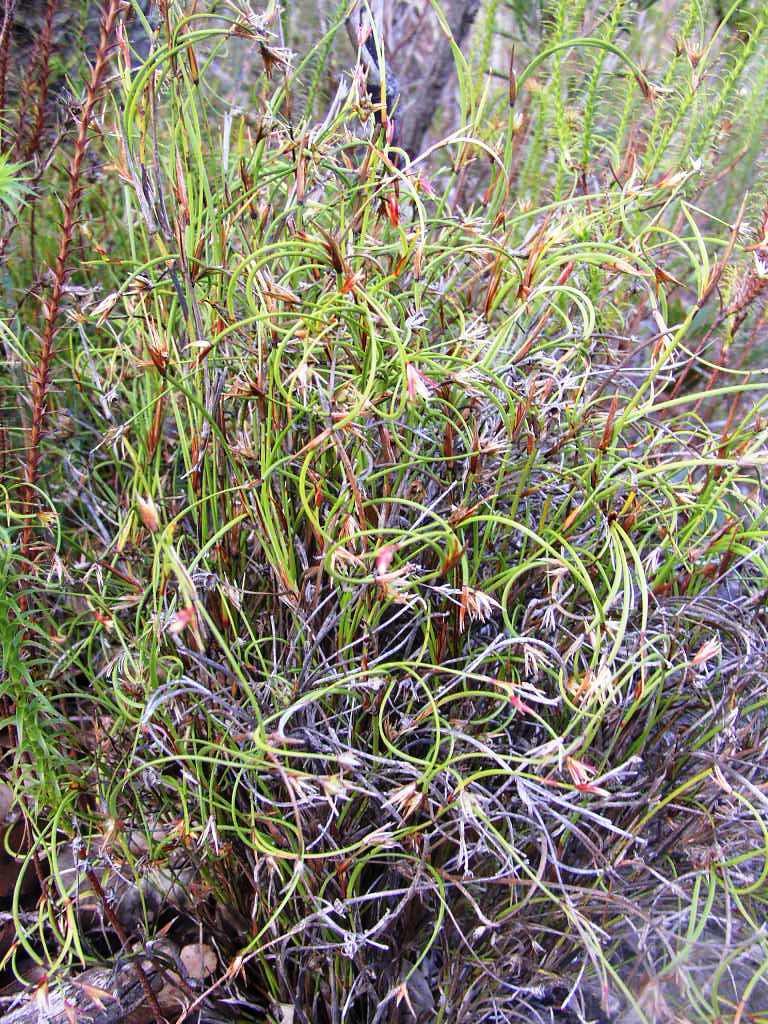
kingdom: Plantae
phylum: Tracheophyta
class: Liliopsida
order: Poales
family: Restionaceae
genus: Anarthria
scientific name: Anarthria prolifera
